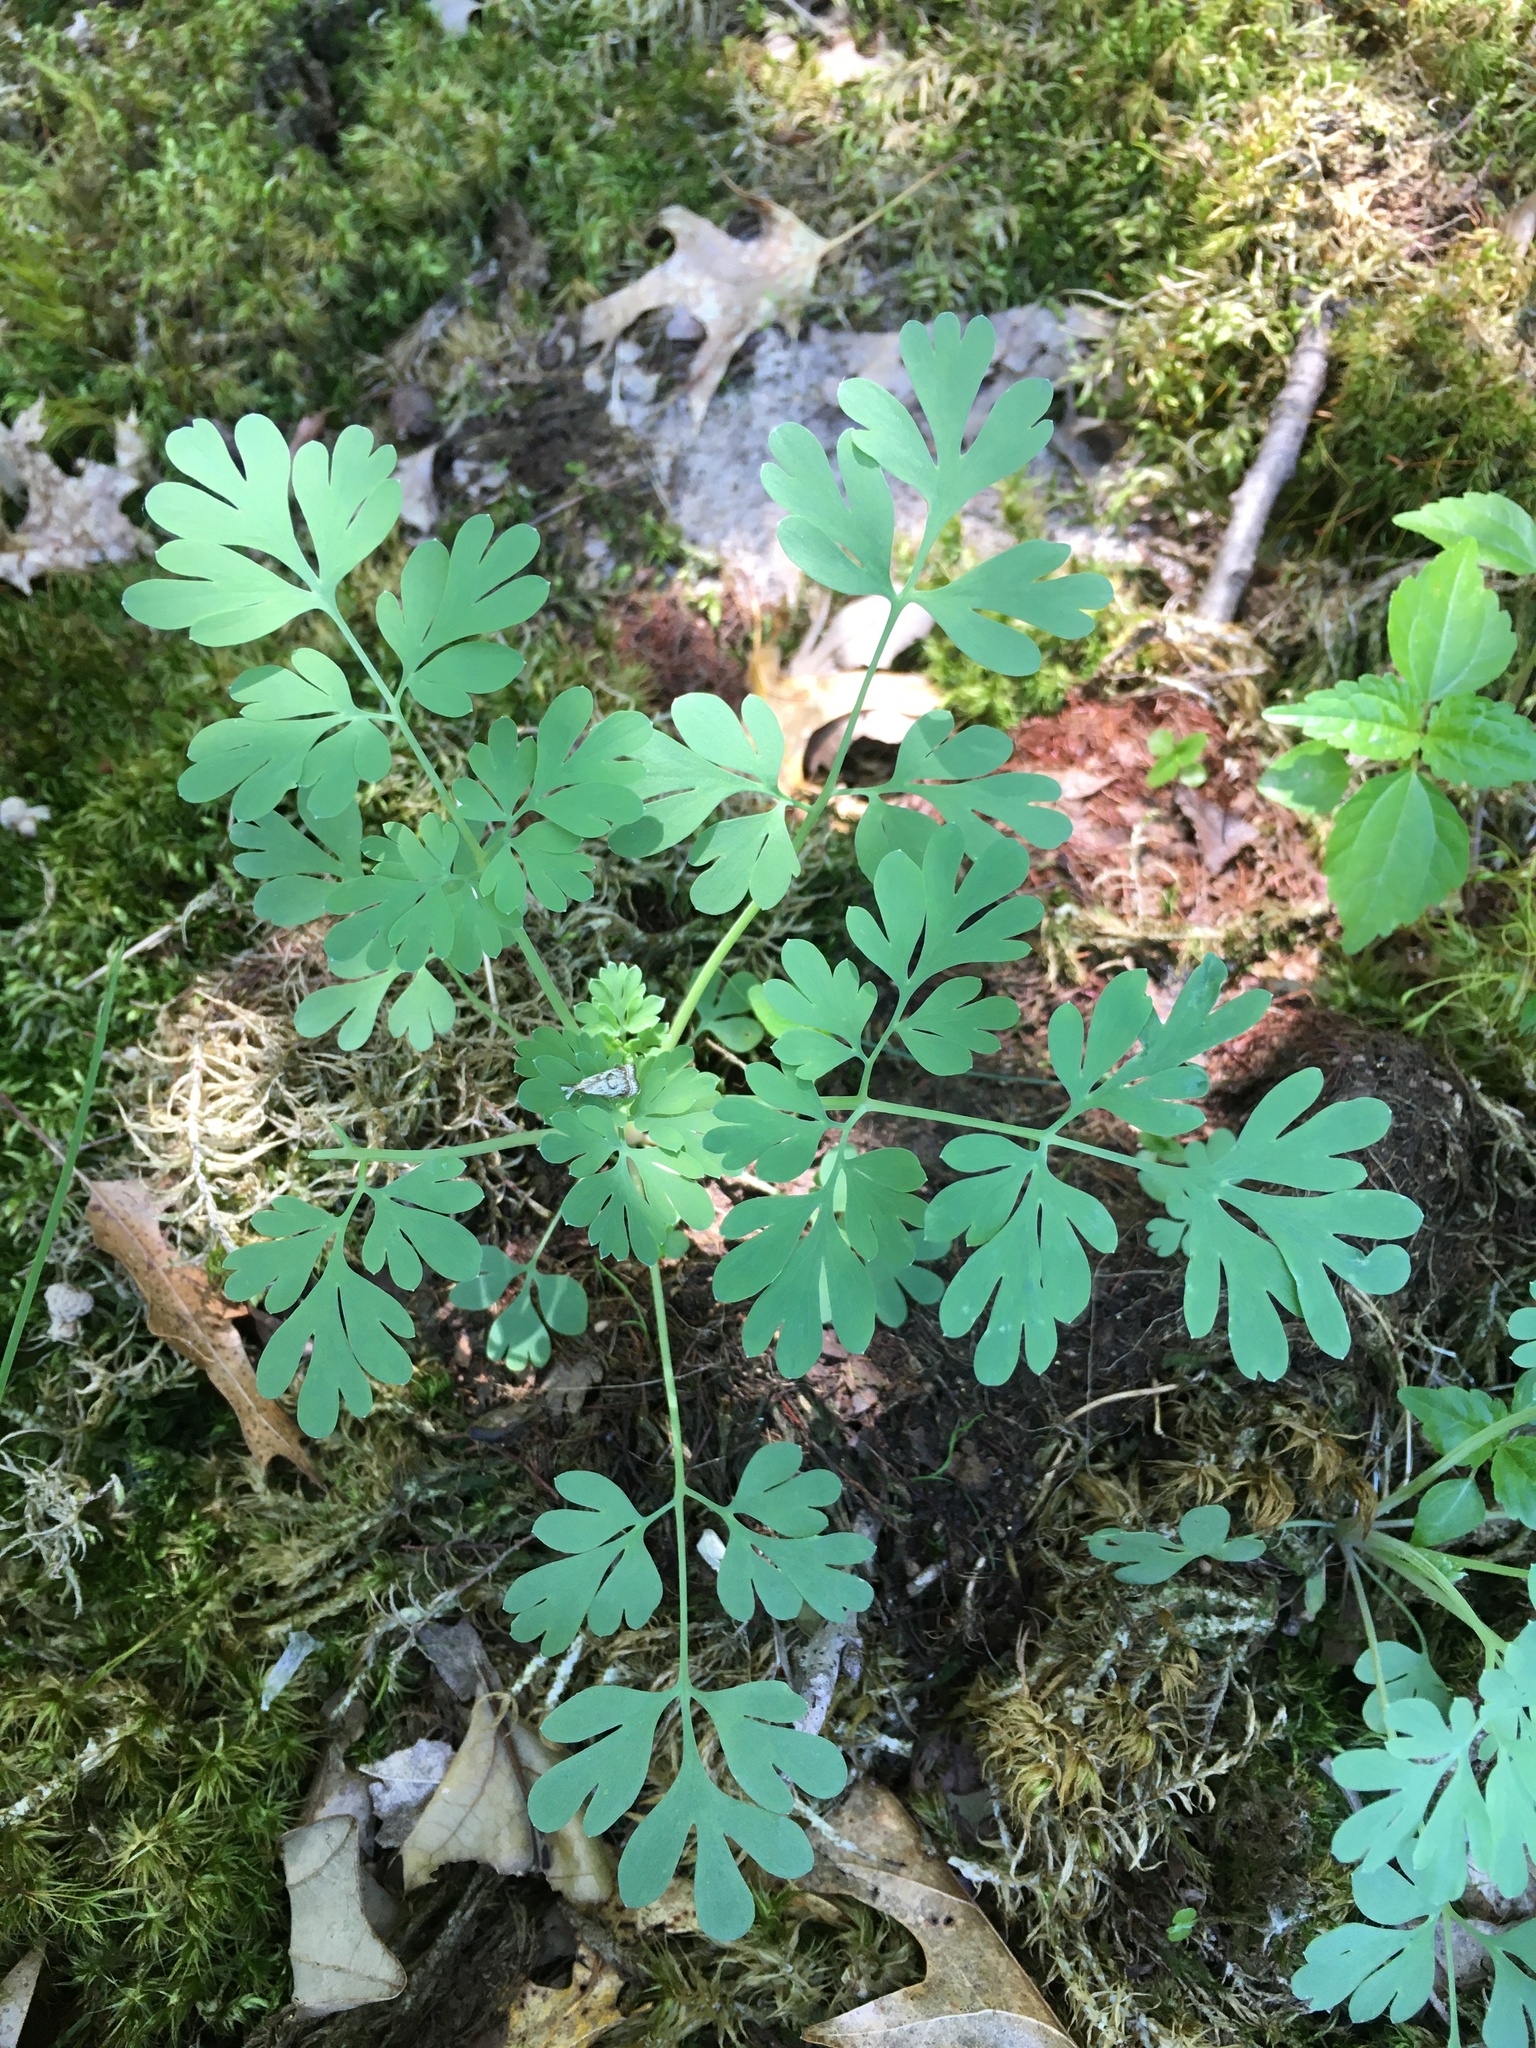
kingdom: Plantae
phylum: Tracheophyta
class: Magnoliopsida
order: Ranunculales
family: Papaveraceae
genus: Capnoides
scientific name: Capnoides sempervirens
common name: Rock harlequin
